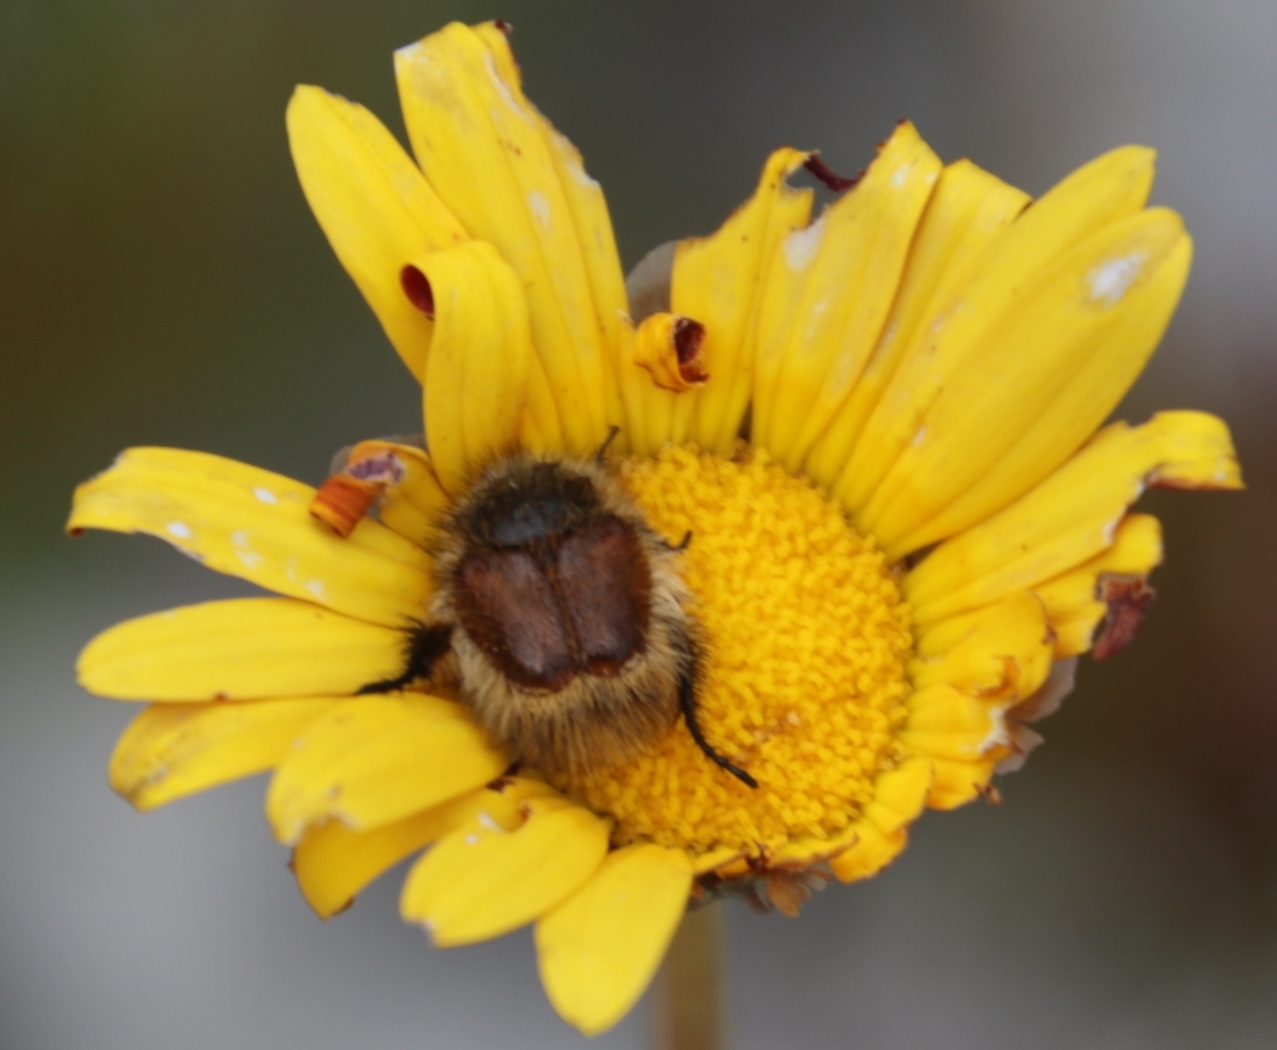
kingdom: Plantae
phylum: Tracheophyta
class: Magnoliopsida
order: Asterales
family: Asteraceae
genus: Ursinia
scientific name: Ursinia paleacea
